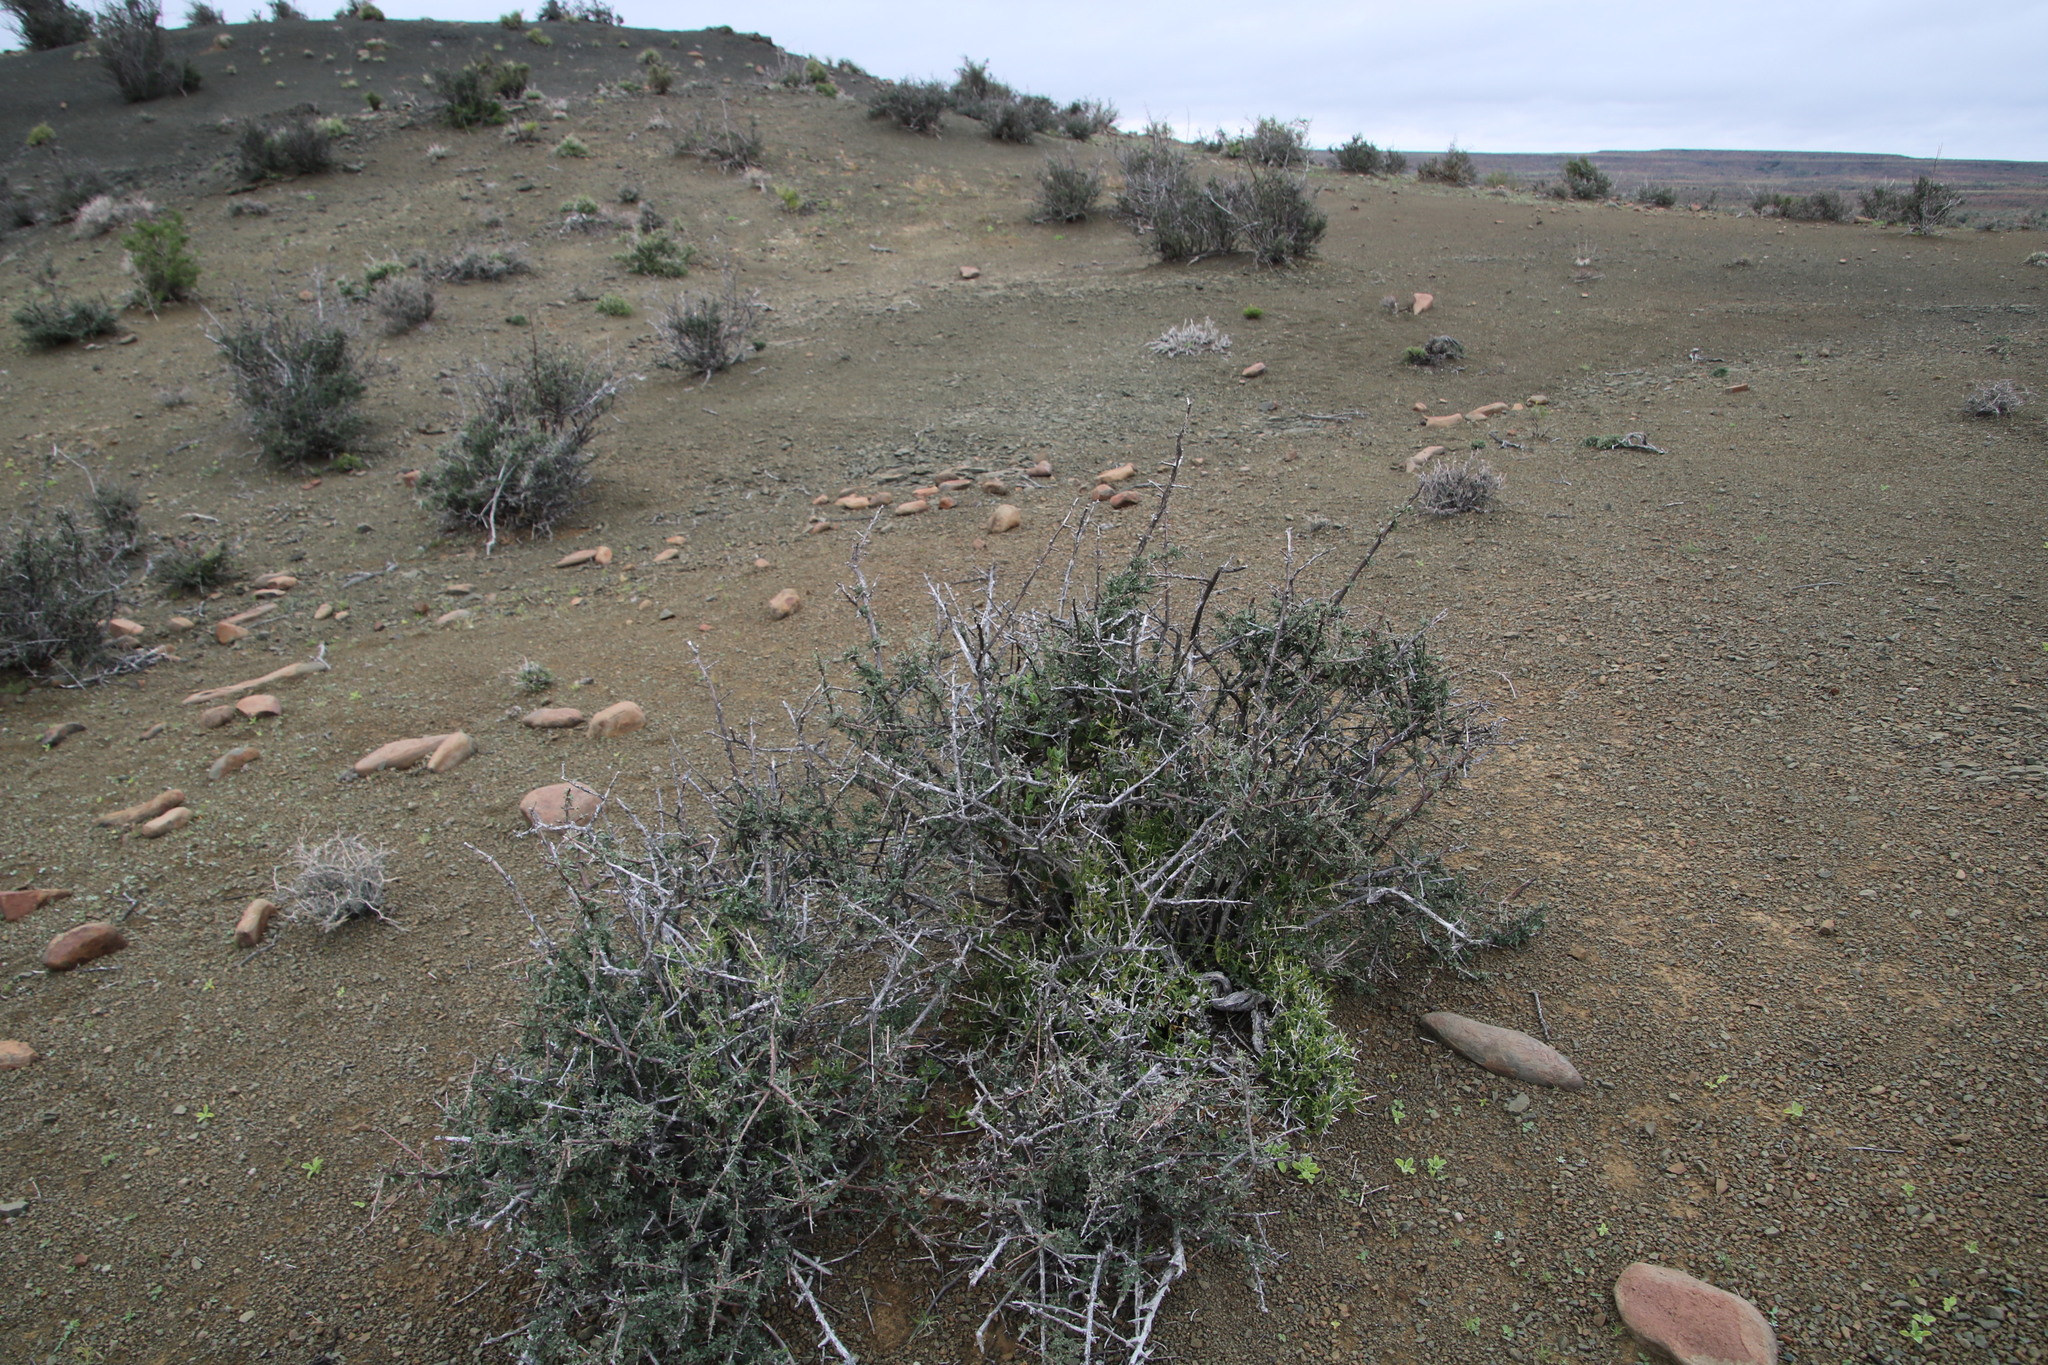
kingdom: Plantae
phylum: Tracheophyta
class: Magnoliopsida
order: Lamiales
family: Bignoniaceae
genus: Rhigozum
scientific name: Rhigozum obovatum
